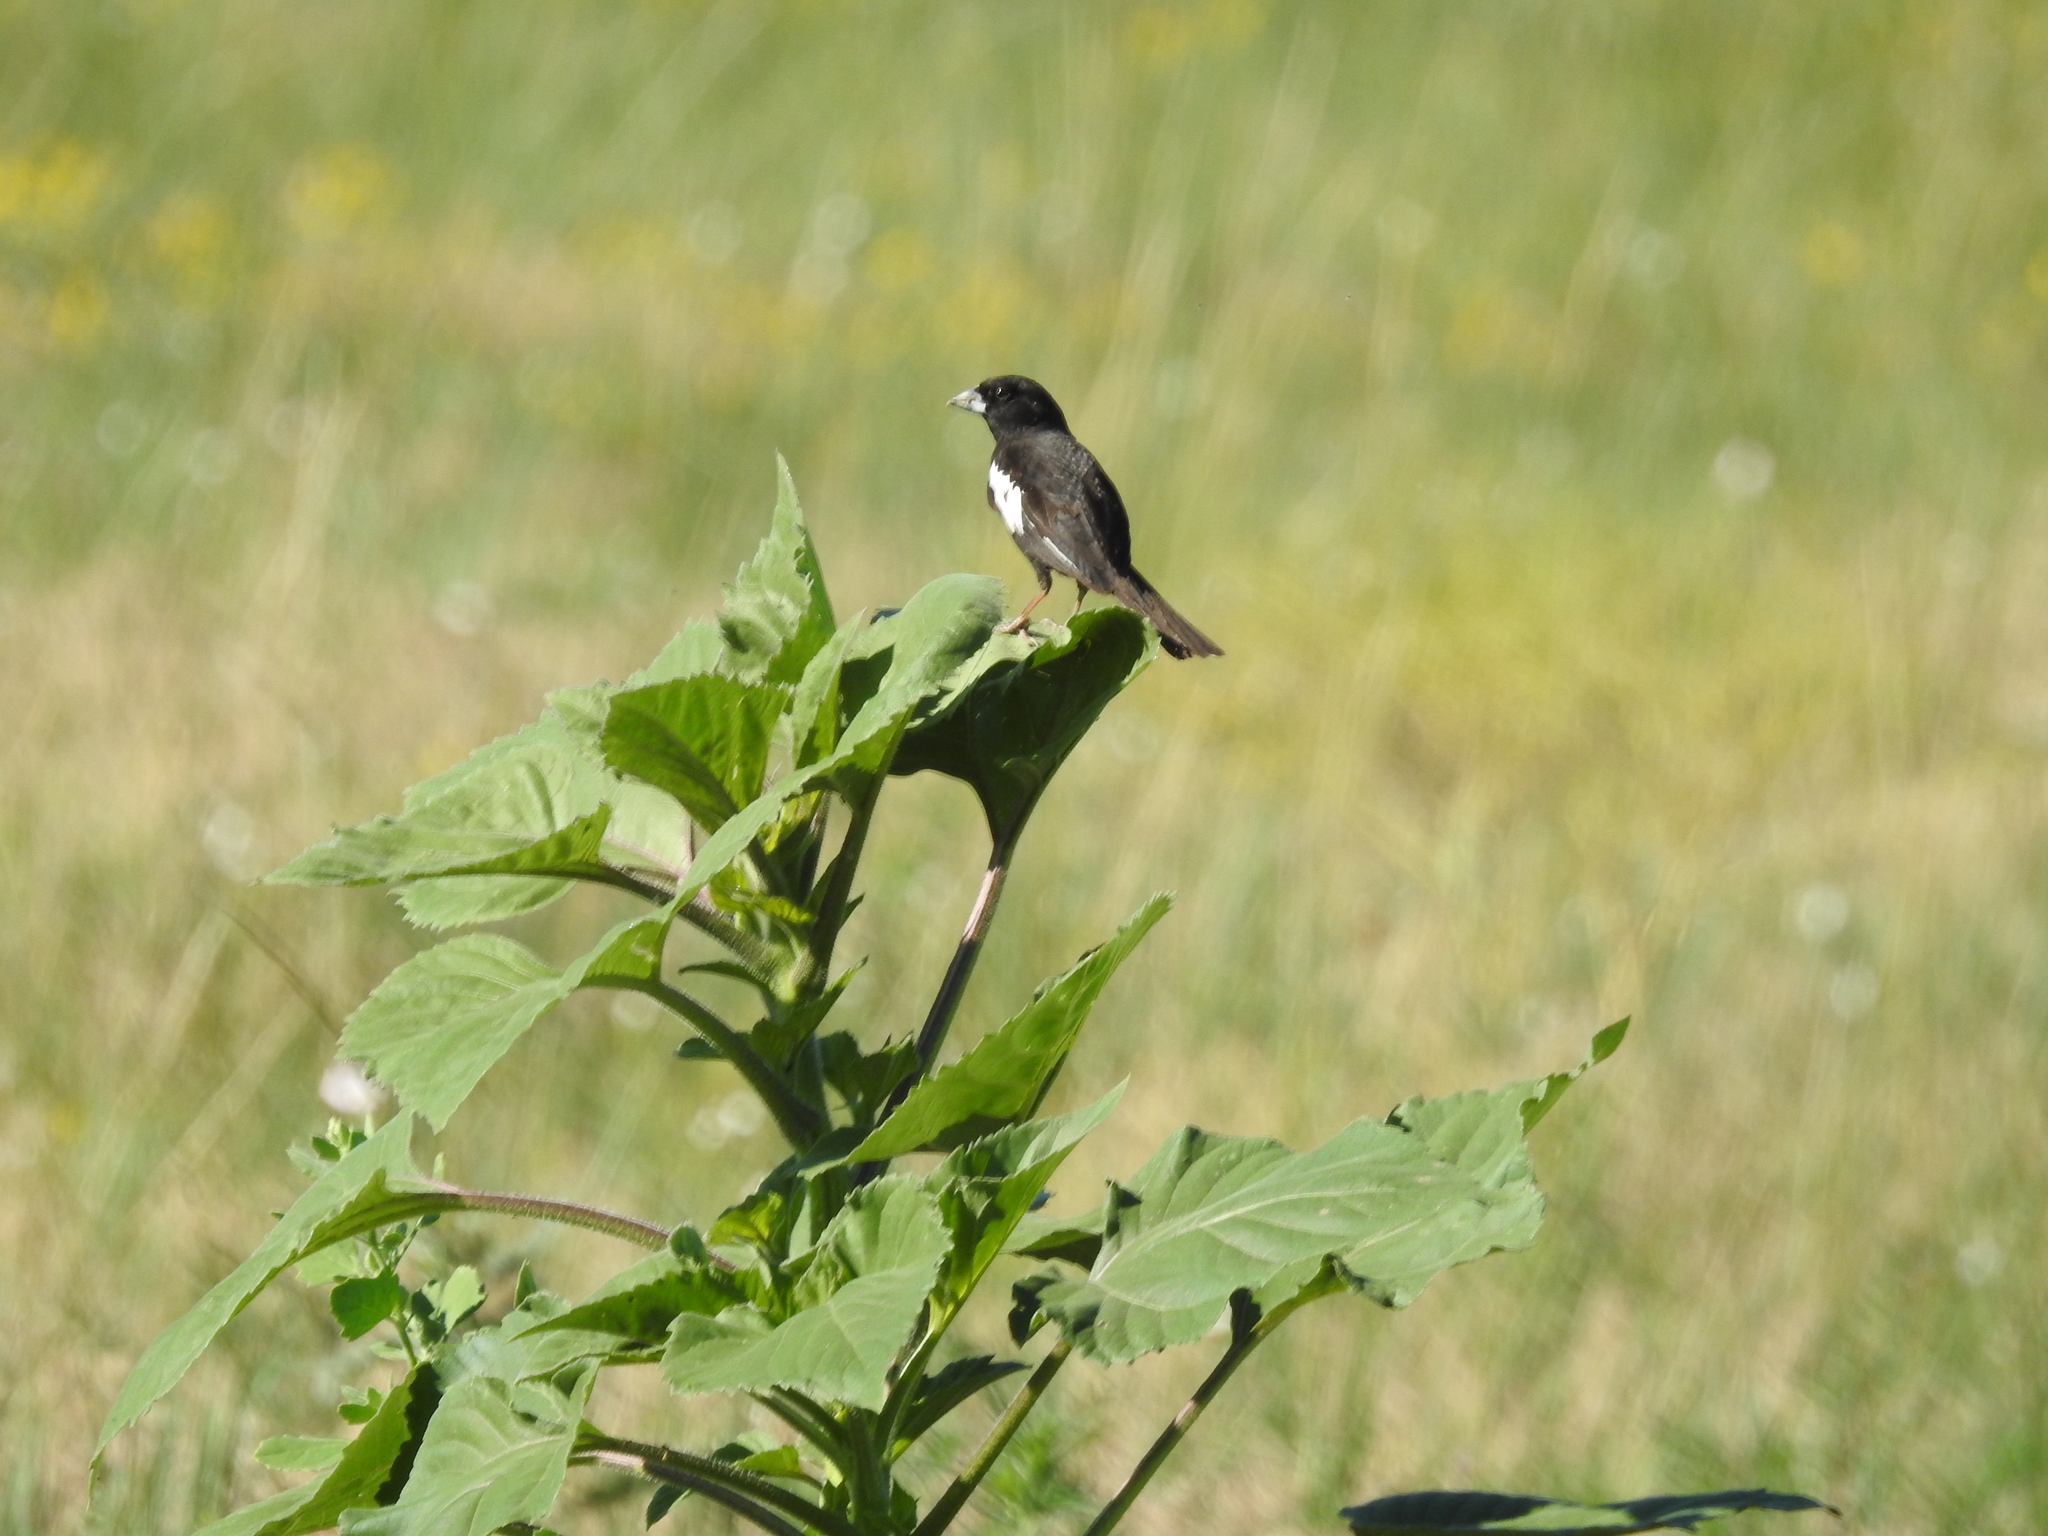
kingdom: Animalia
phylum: Chordata
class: Aves
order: Passeriformes
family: Passerellidae
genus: Calamospiza
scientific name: Calamospiza melanocorys
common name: Lark bunting
